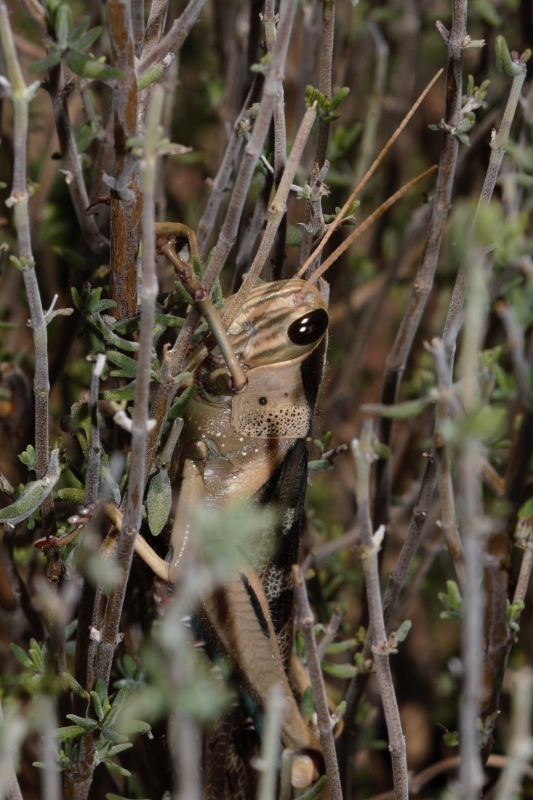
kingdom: Animalia
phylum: Arthropoda
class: Insecta
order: Orthoptera
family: Acrididae
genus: Acanthacris
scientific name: Acanthacris ruficornis
